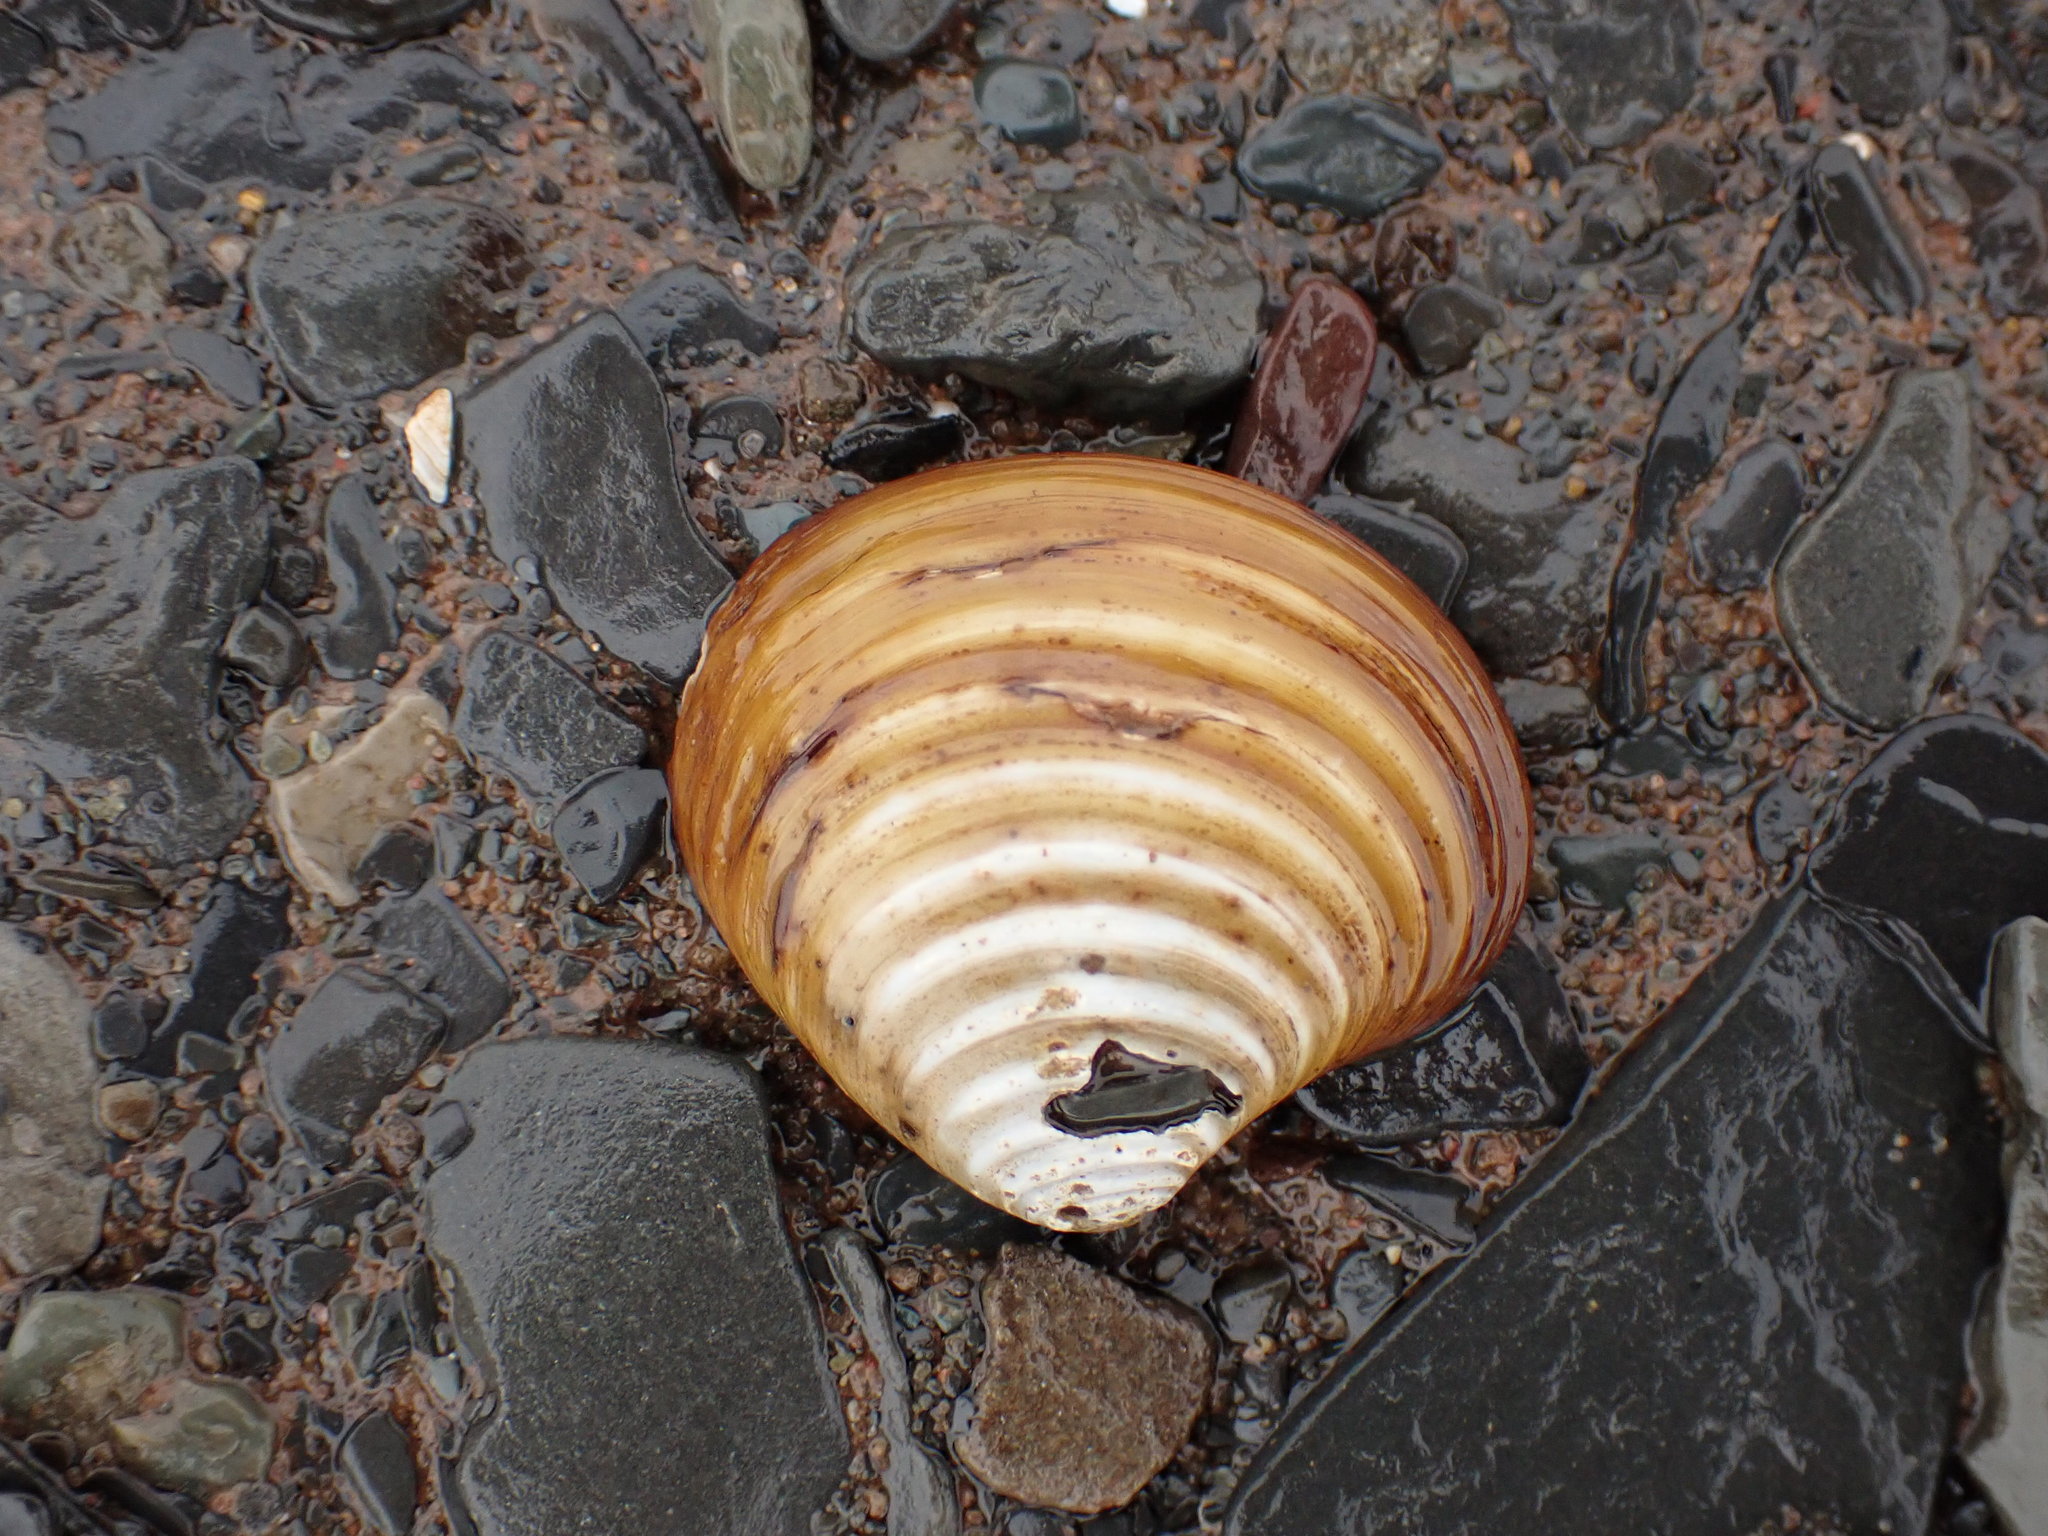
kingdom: Animalia
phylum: Mollusca
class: Bivalvia
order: Carditida
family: Astartidae
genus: Astarte
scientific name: Astarte undata
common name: Wavy astarte
